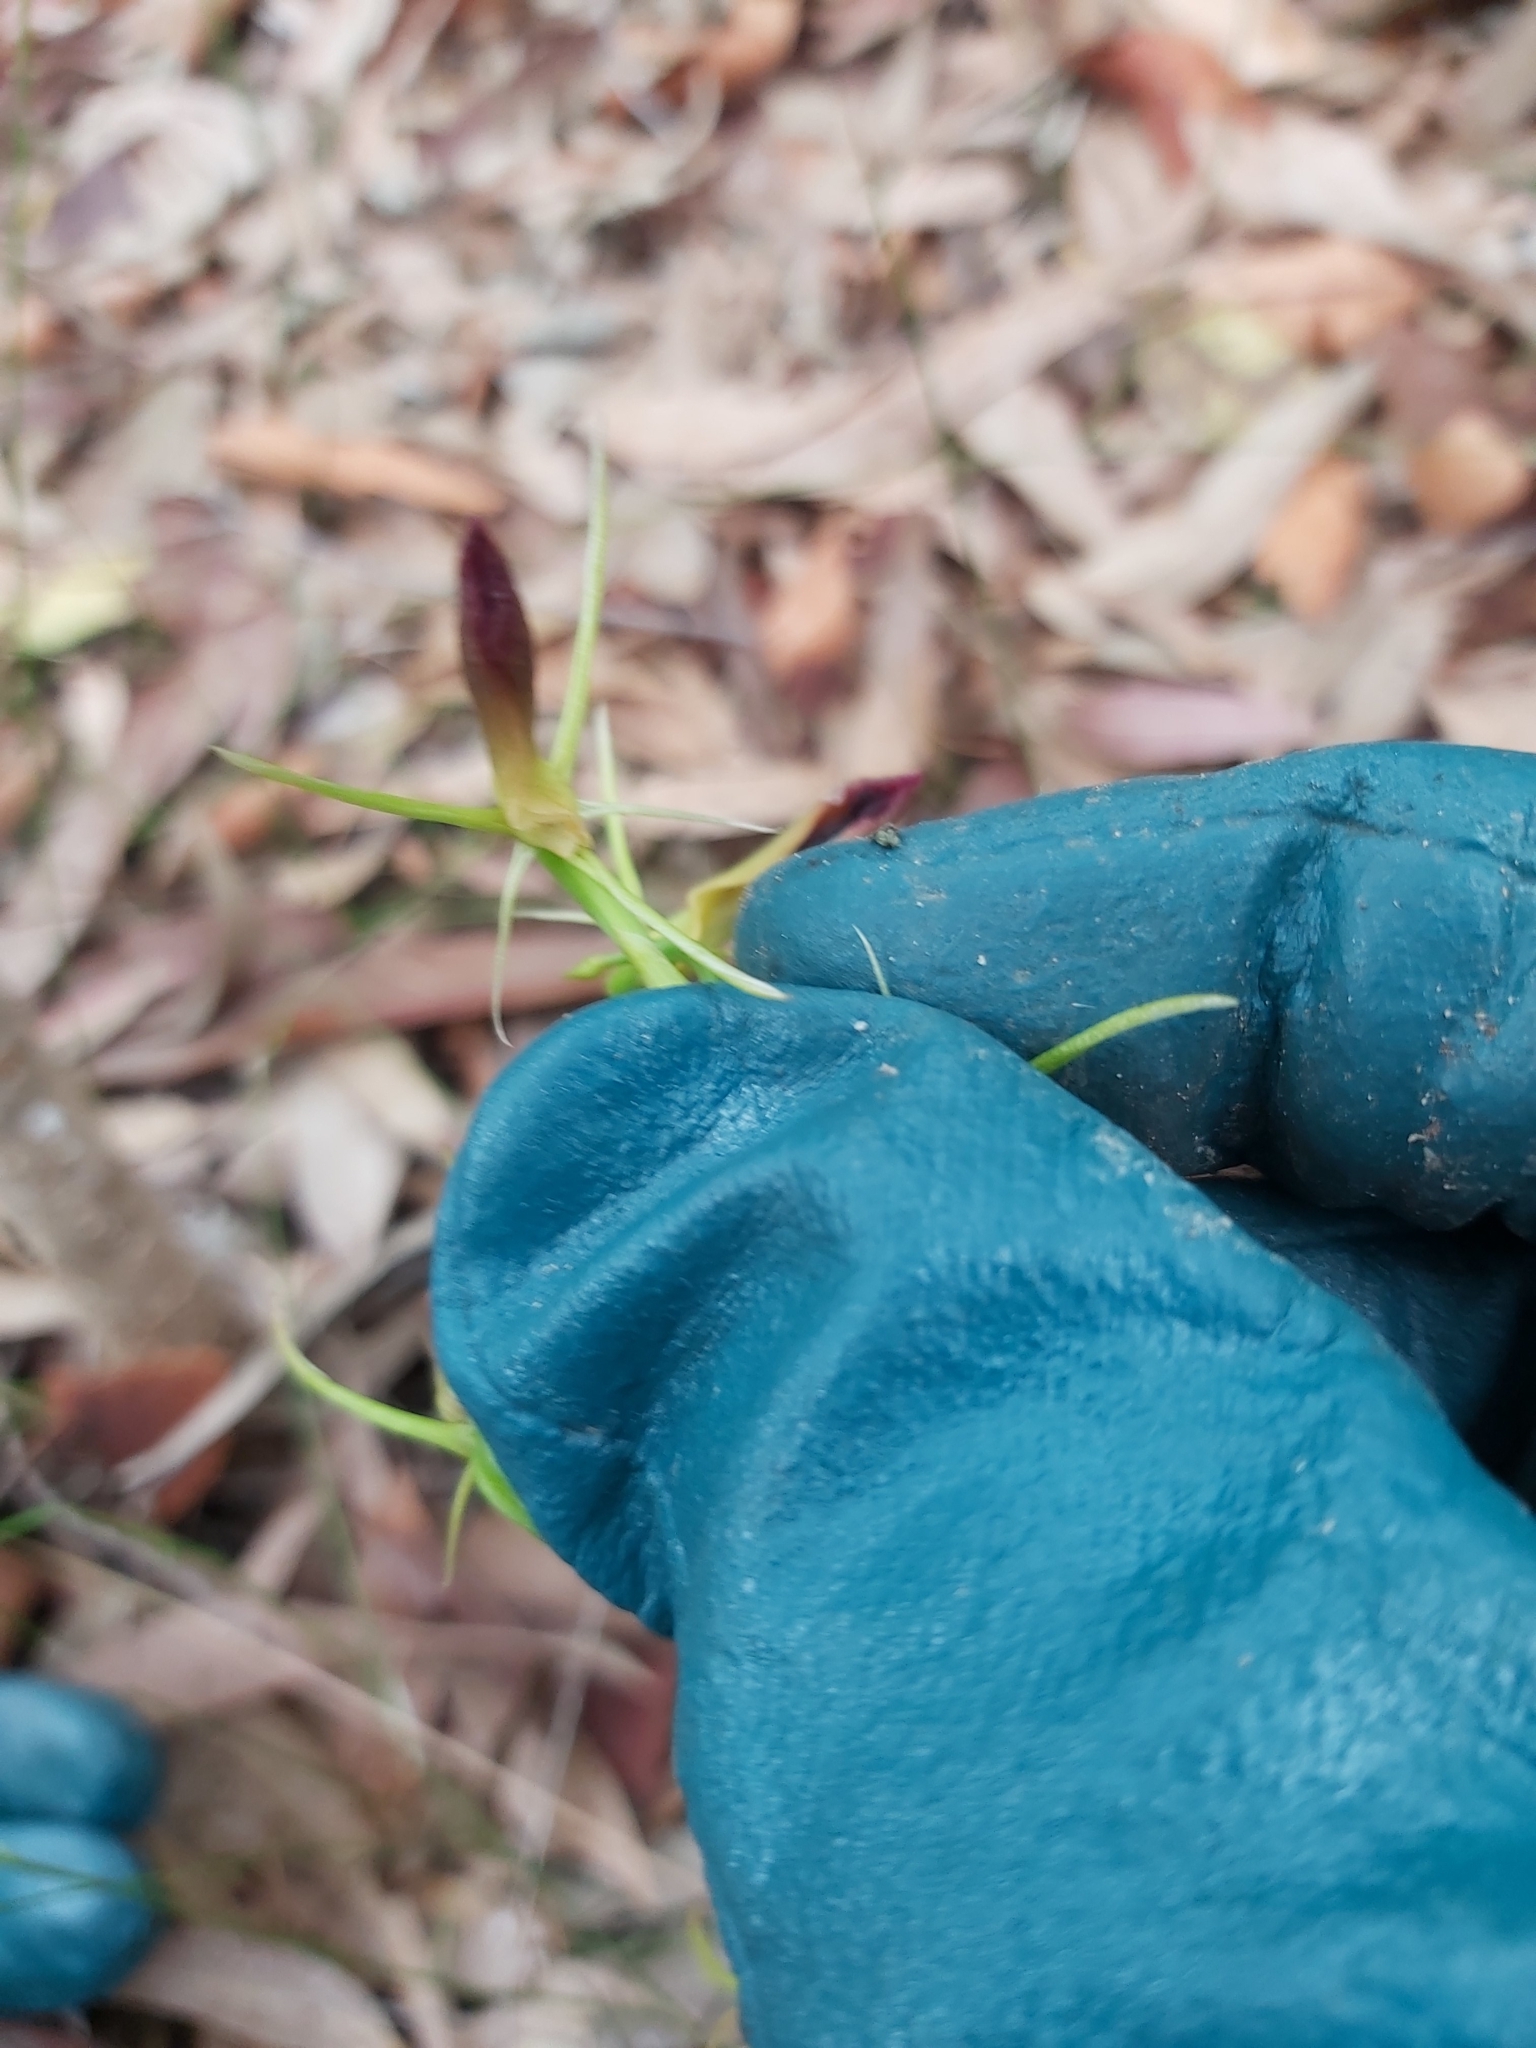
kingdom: Plantae
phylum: Tracheophyta
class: Liliopsida
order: Asparagales
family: Orchidaceae
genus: Cryptostylis
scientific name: Cryptostylis subulata
